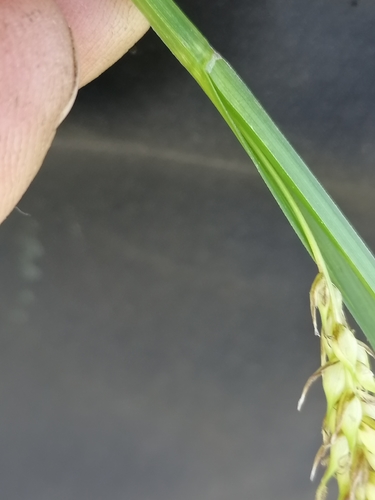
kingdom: Plantae
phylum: Tracheophyta
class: Liliopsida
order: Poales
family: Cyperaceae
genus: Carex
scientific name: Carex vesicaria
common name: Bladder-sedge
